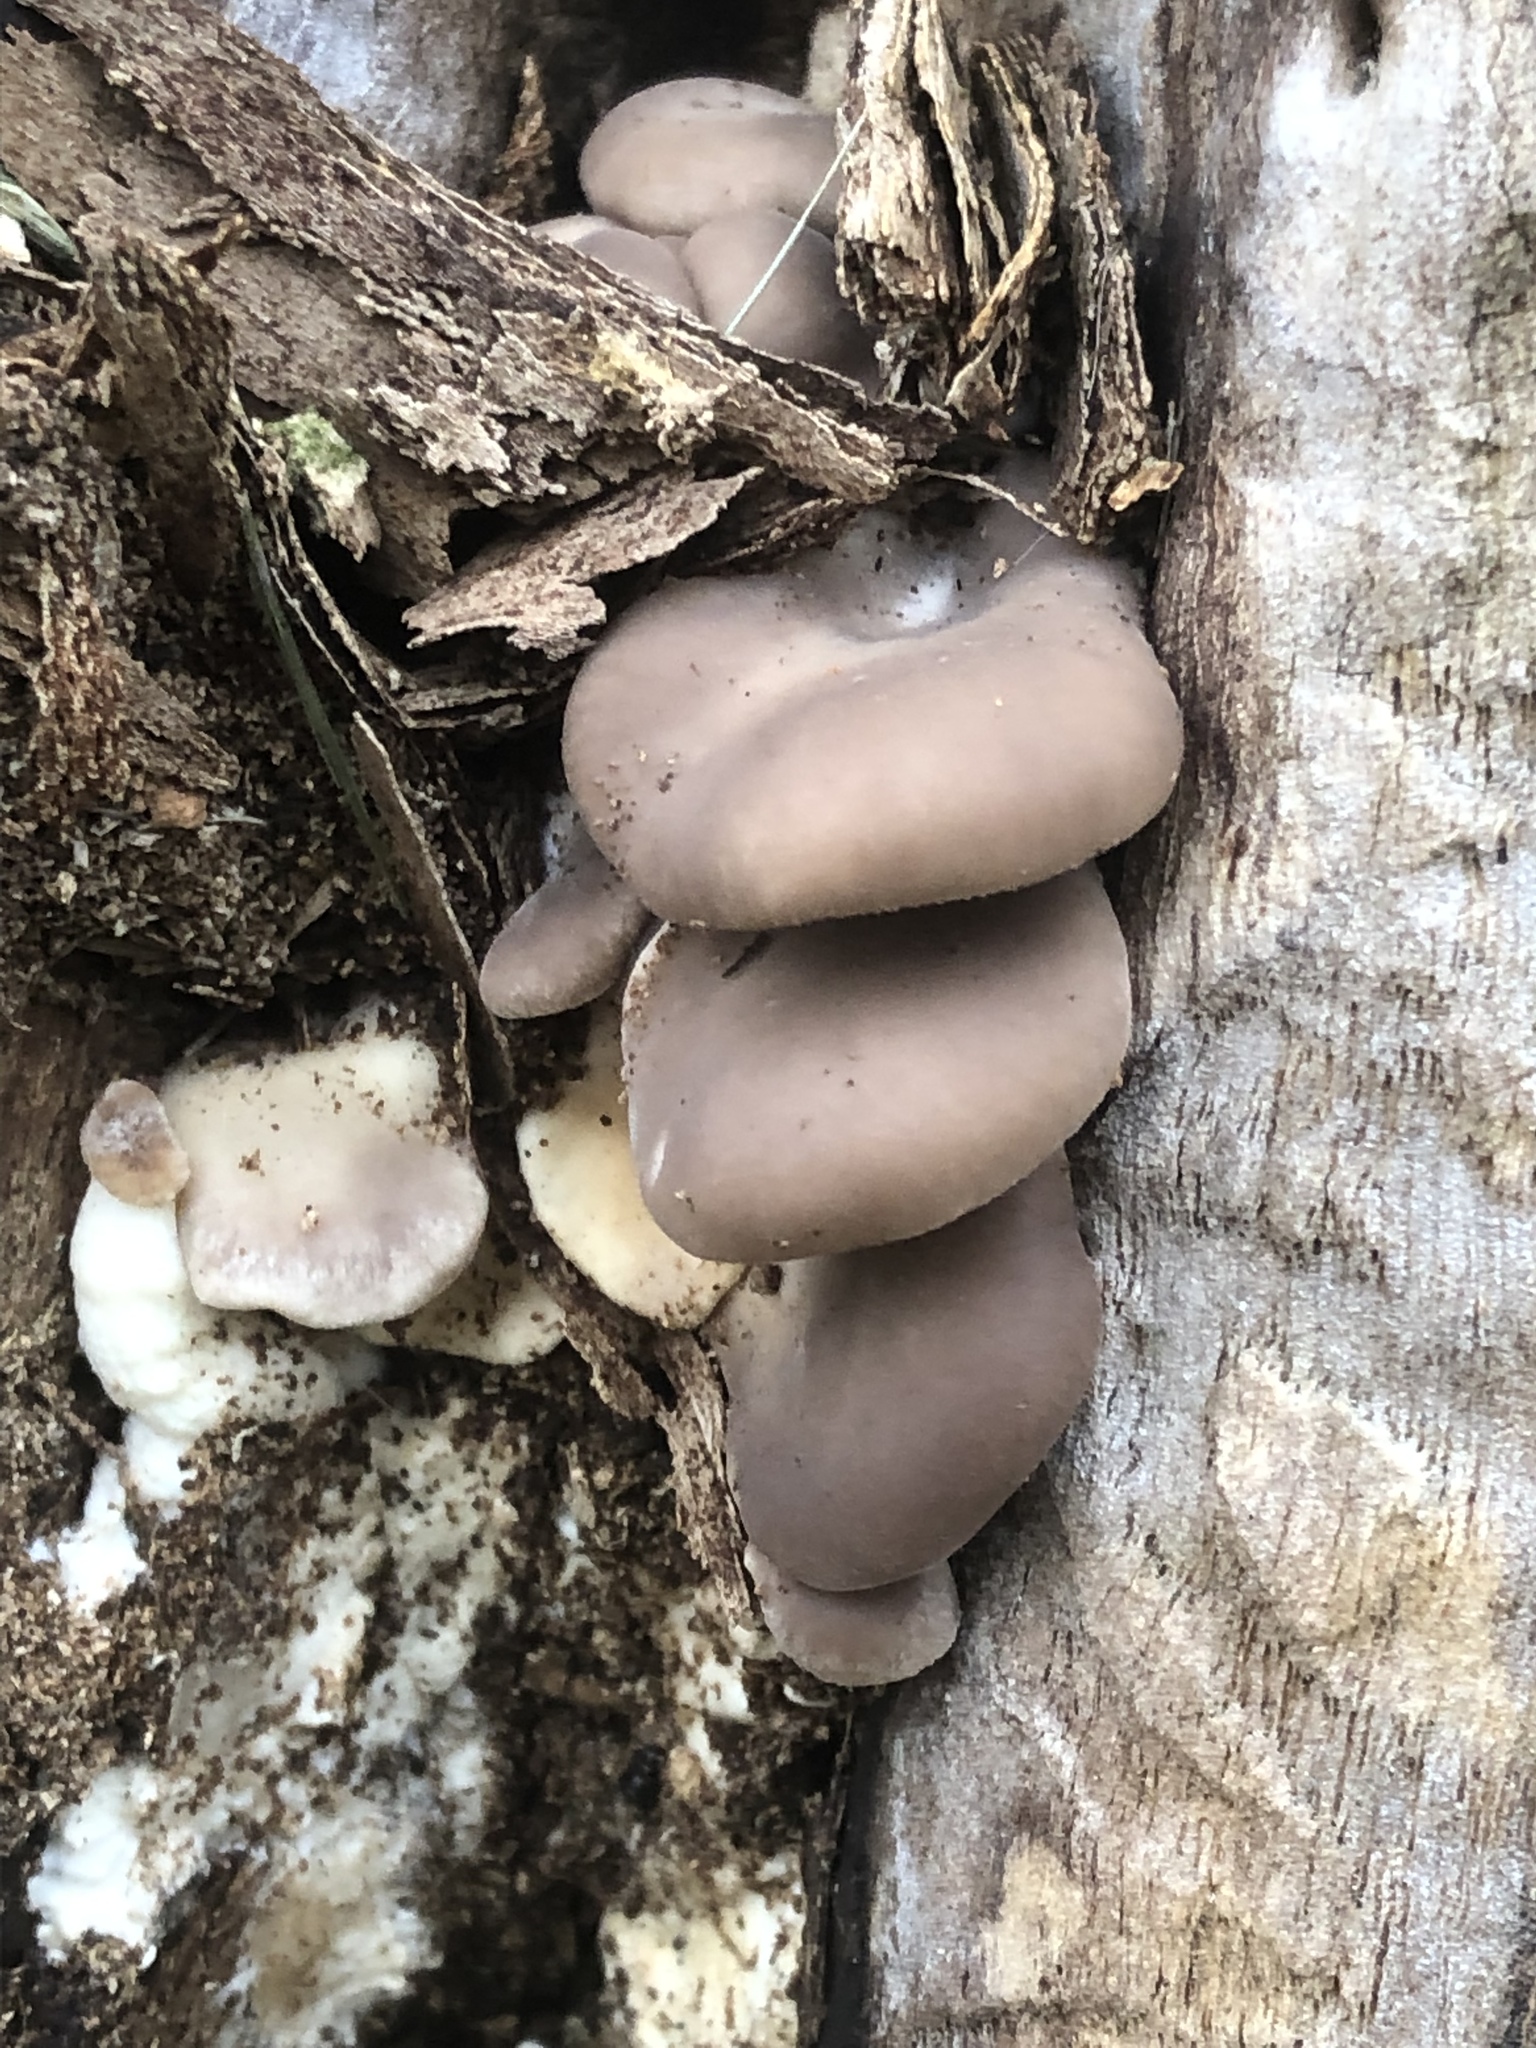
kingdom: Fungi
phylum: Basidiomycota
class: Agaricomycetes
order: Agaricales
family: Pleurotaceae
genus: Pleurotus
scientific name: Pleurotus ostreatus
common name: Oyster mushroom
